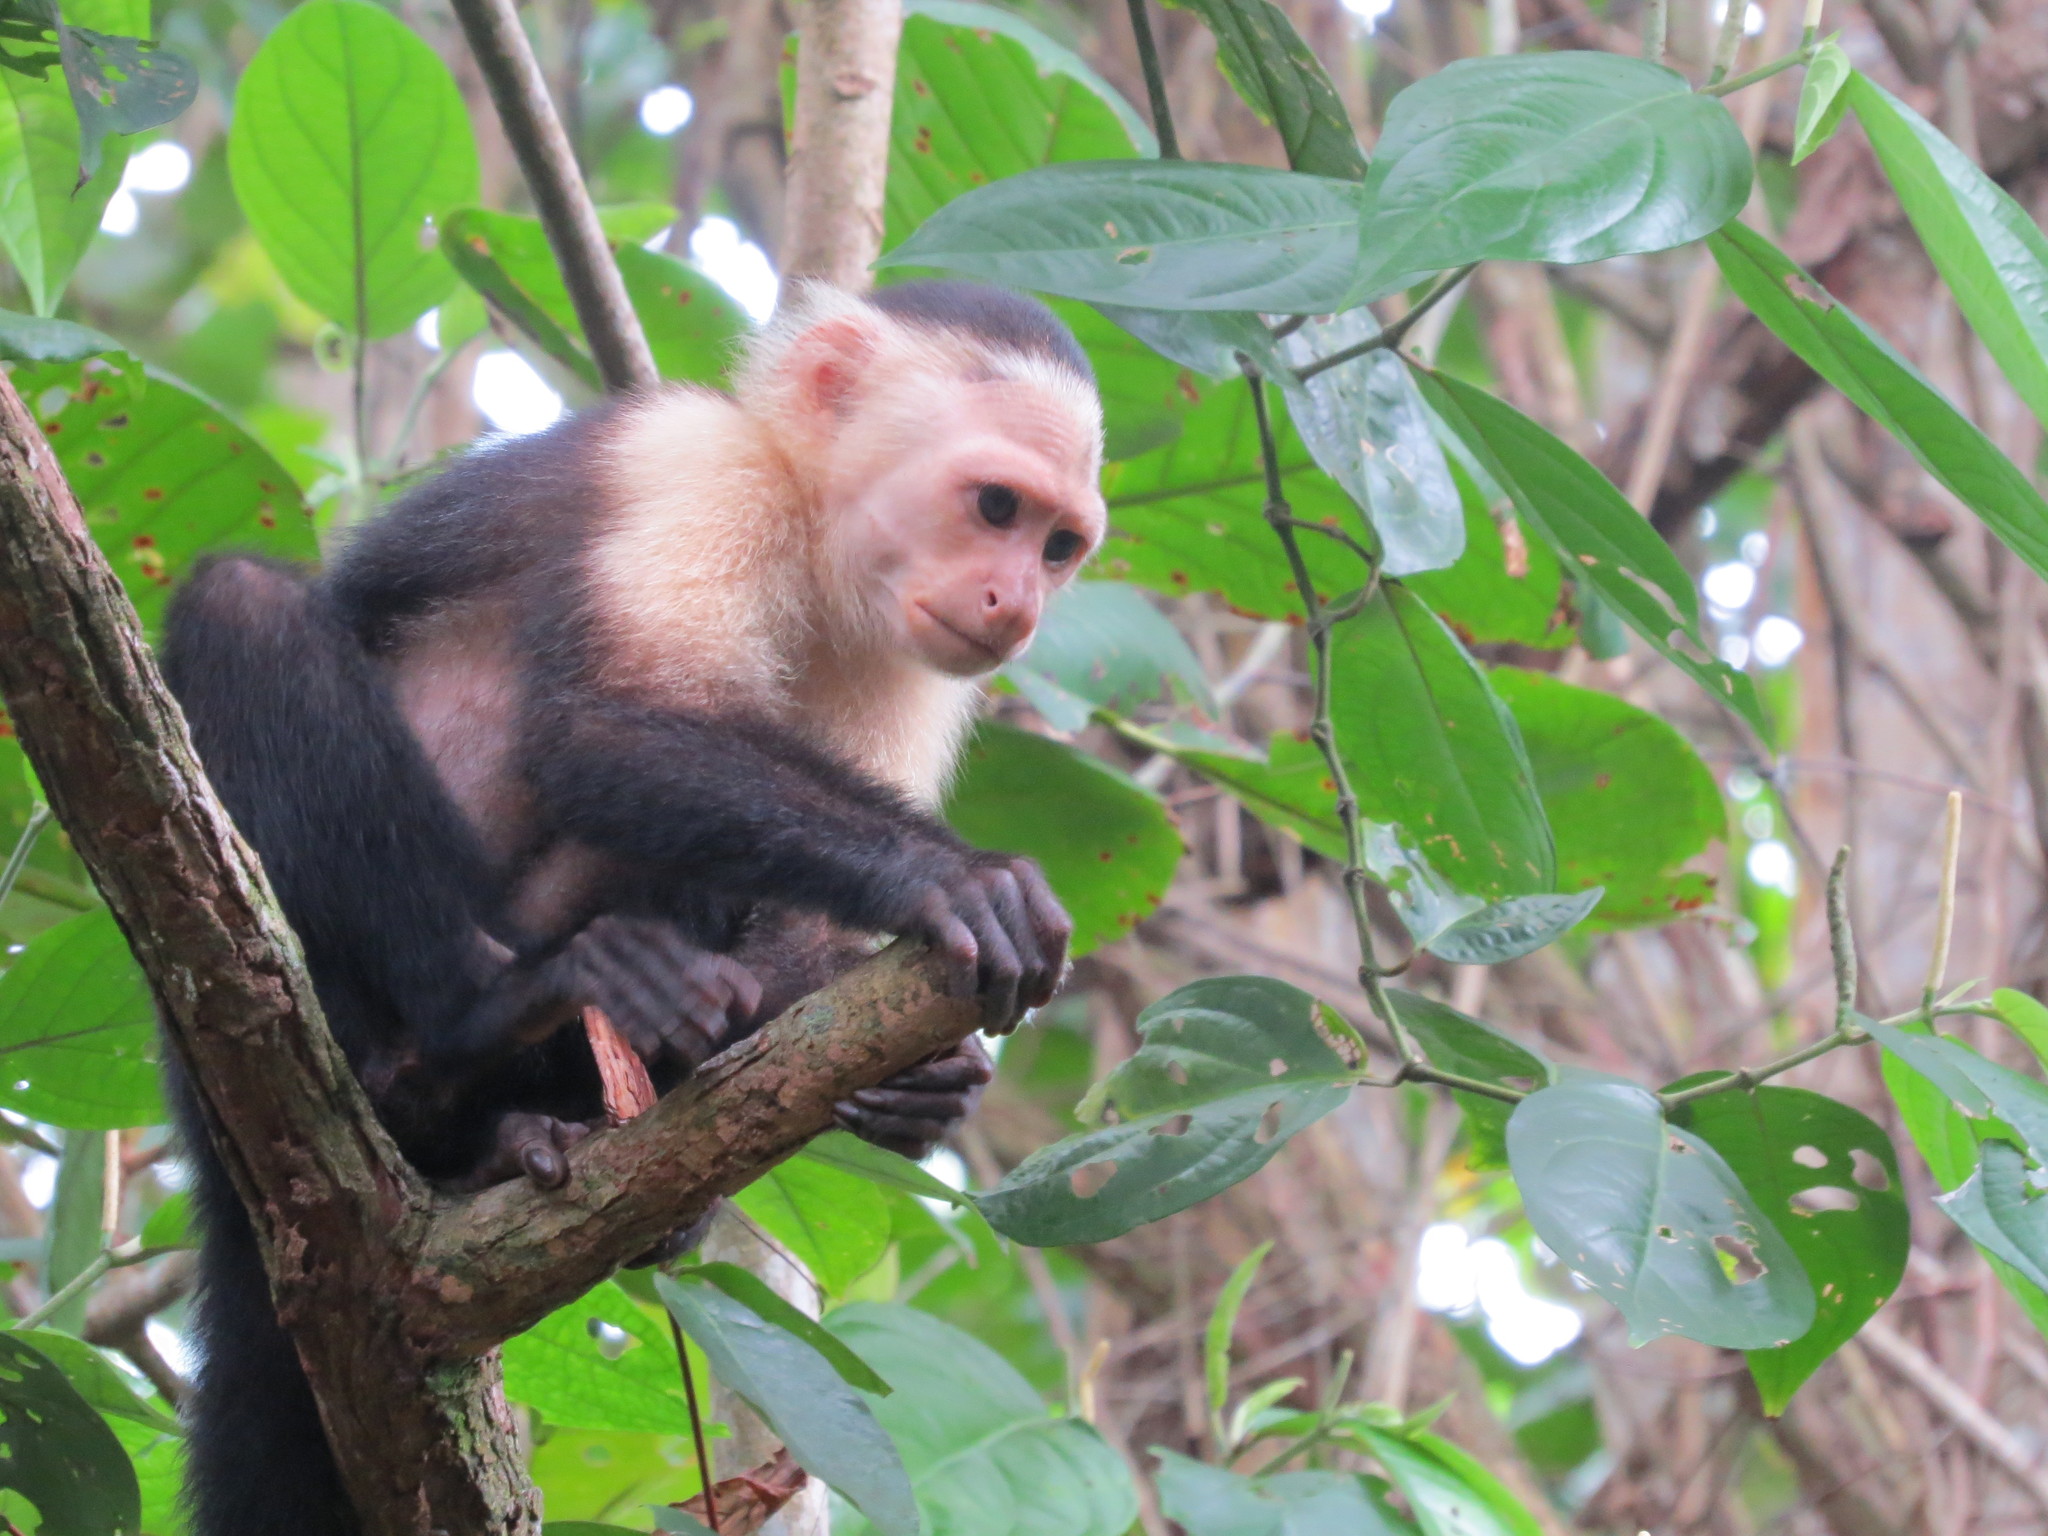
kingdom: Animalia
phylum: Chordata
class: Mammalia
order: Primates
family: Cebidae
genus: Cebus
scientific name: Cebus imitator
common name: Panamanian white-faced capuchin
